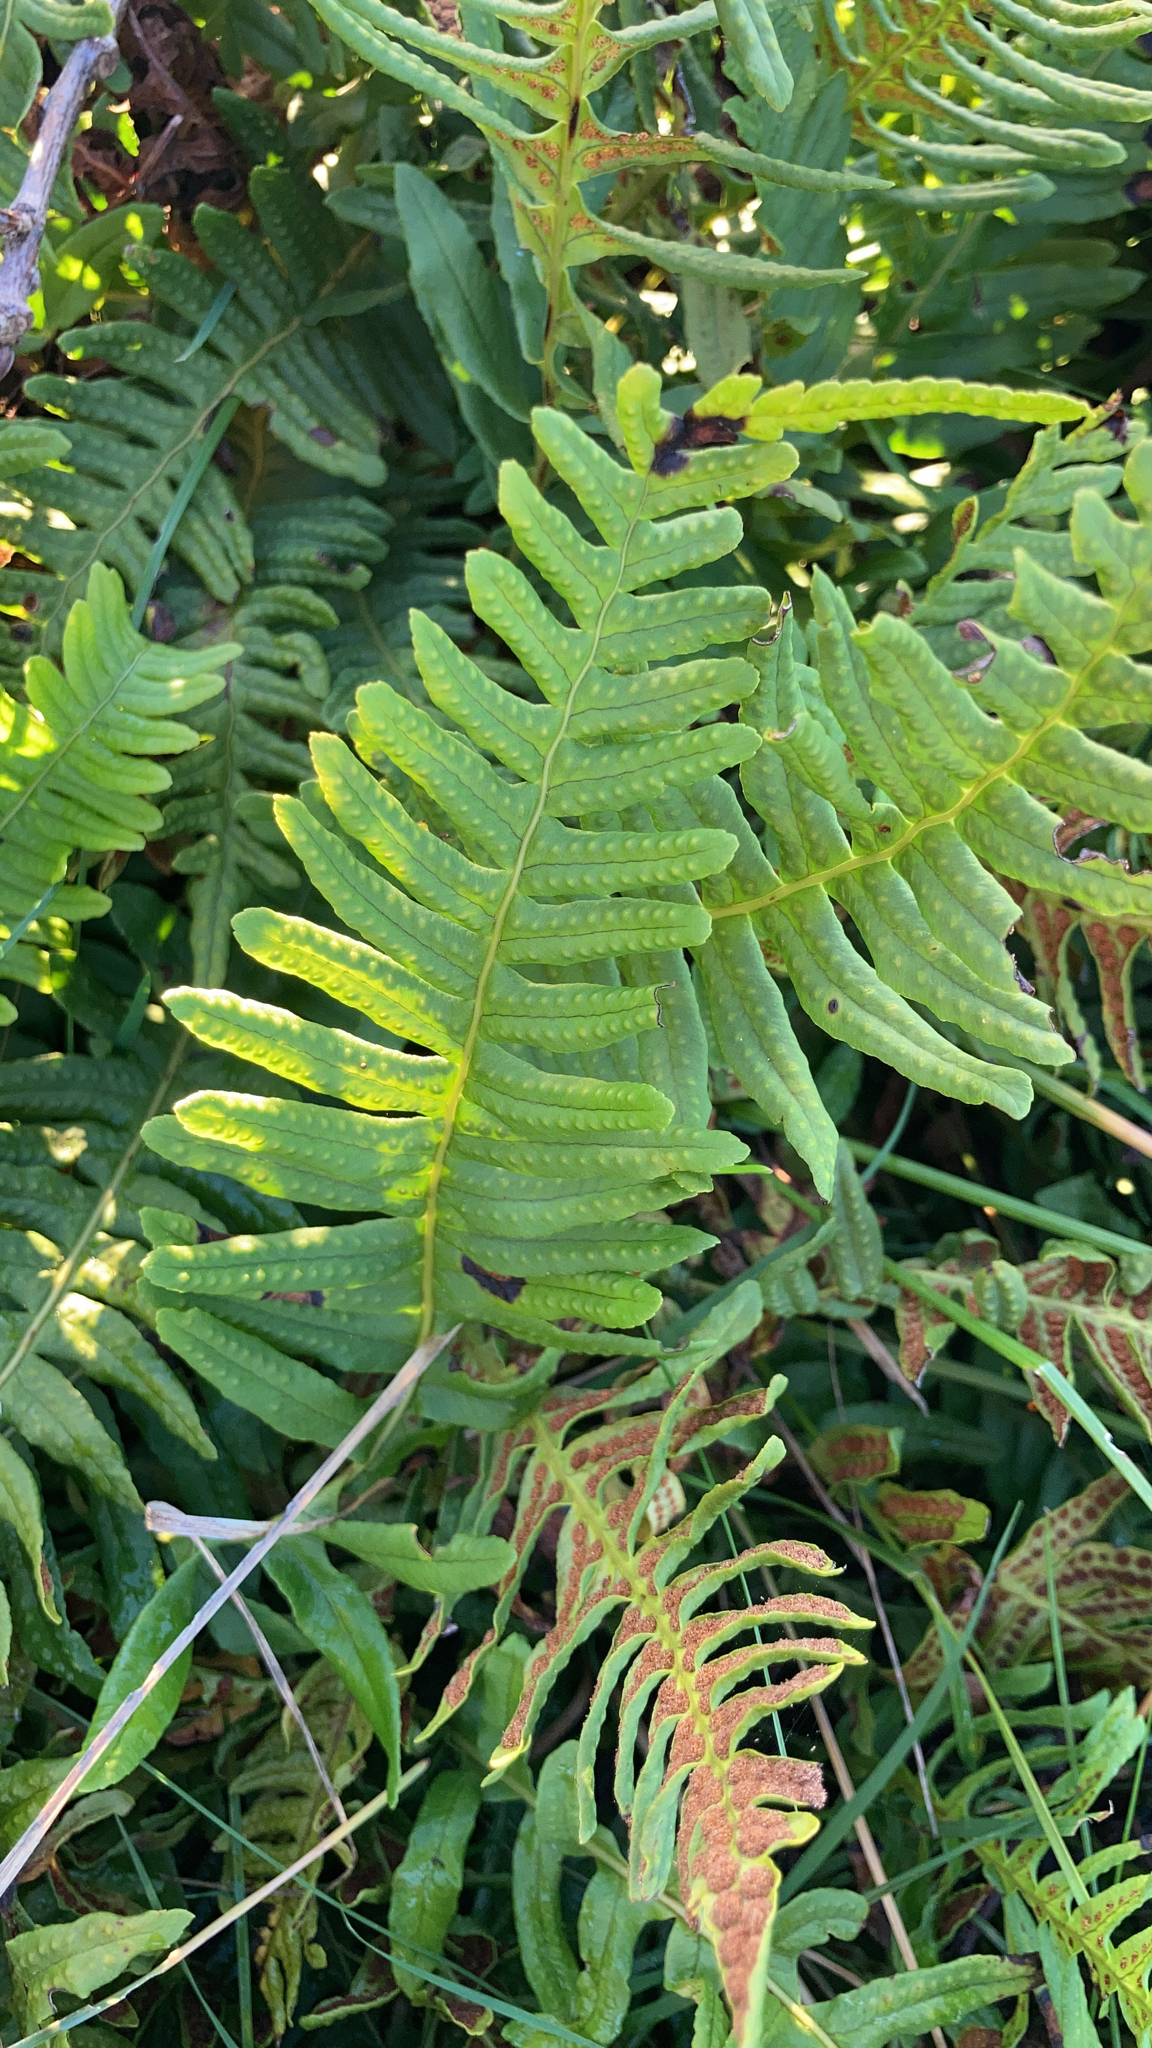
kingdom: Plantae
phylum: Tracheophyta
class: Polypodiopsida
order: Polypodiales
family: Polypodiaceae
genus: Polypodium
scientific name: Polypodium vulgare
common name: Common polypody
